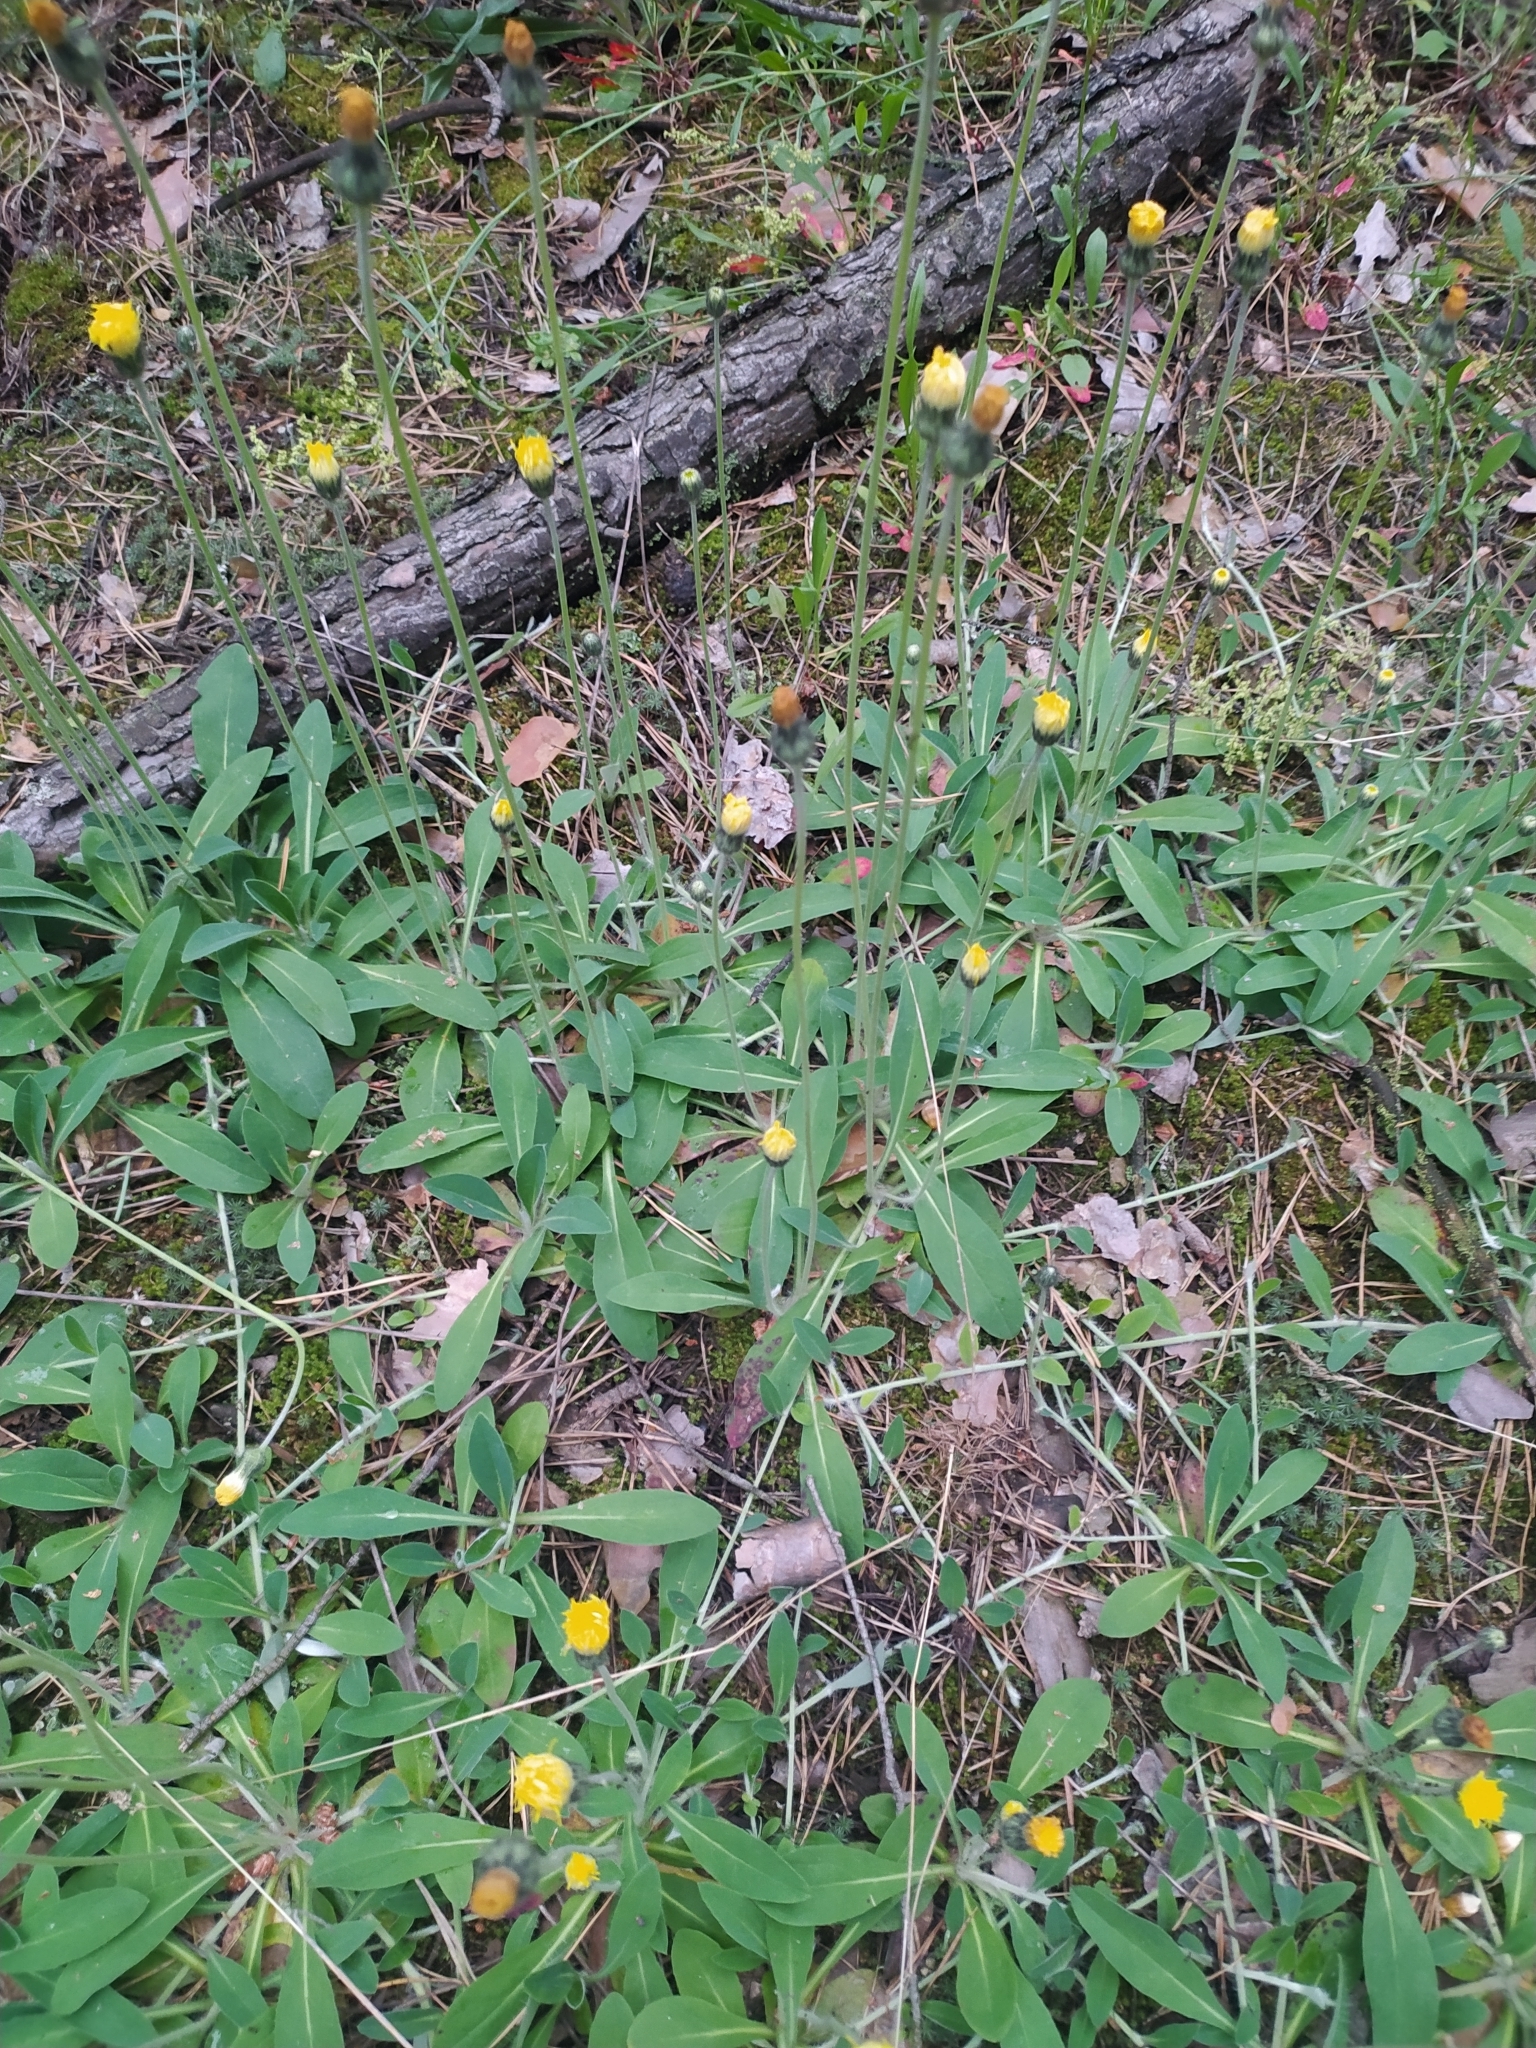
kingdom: Plantae
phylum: Tracheophyta
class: Magnoliopsida
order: Asterales
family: Asteraceae
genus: Pilosella
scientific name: Pilosella officinarum
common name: Mouse-ear hawkweed
